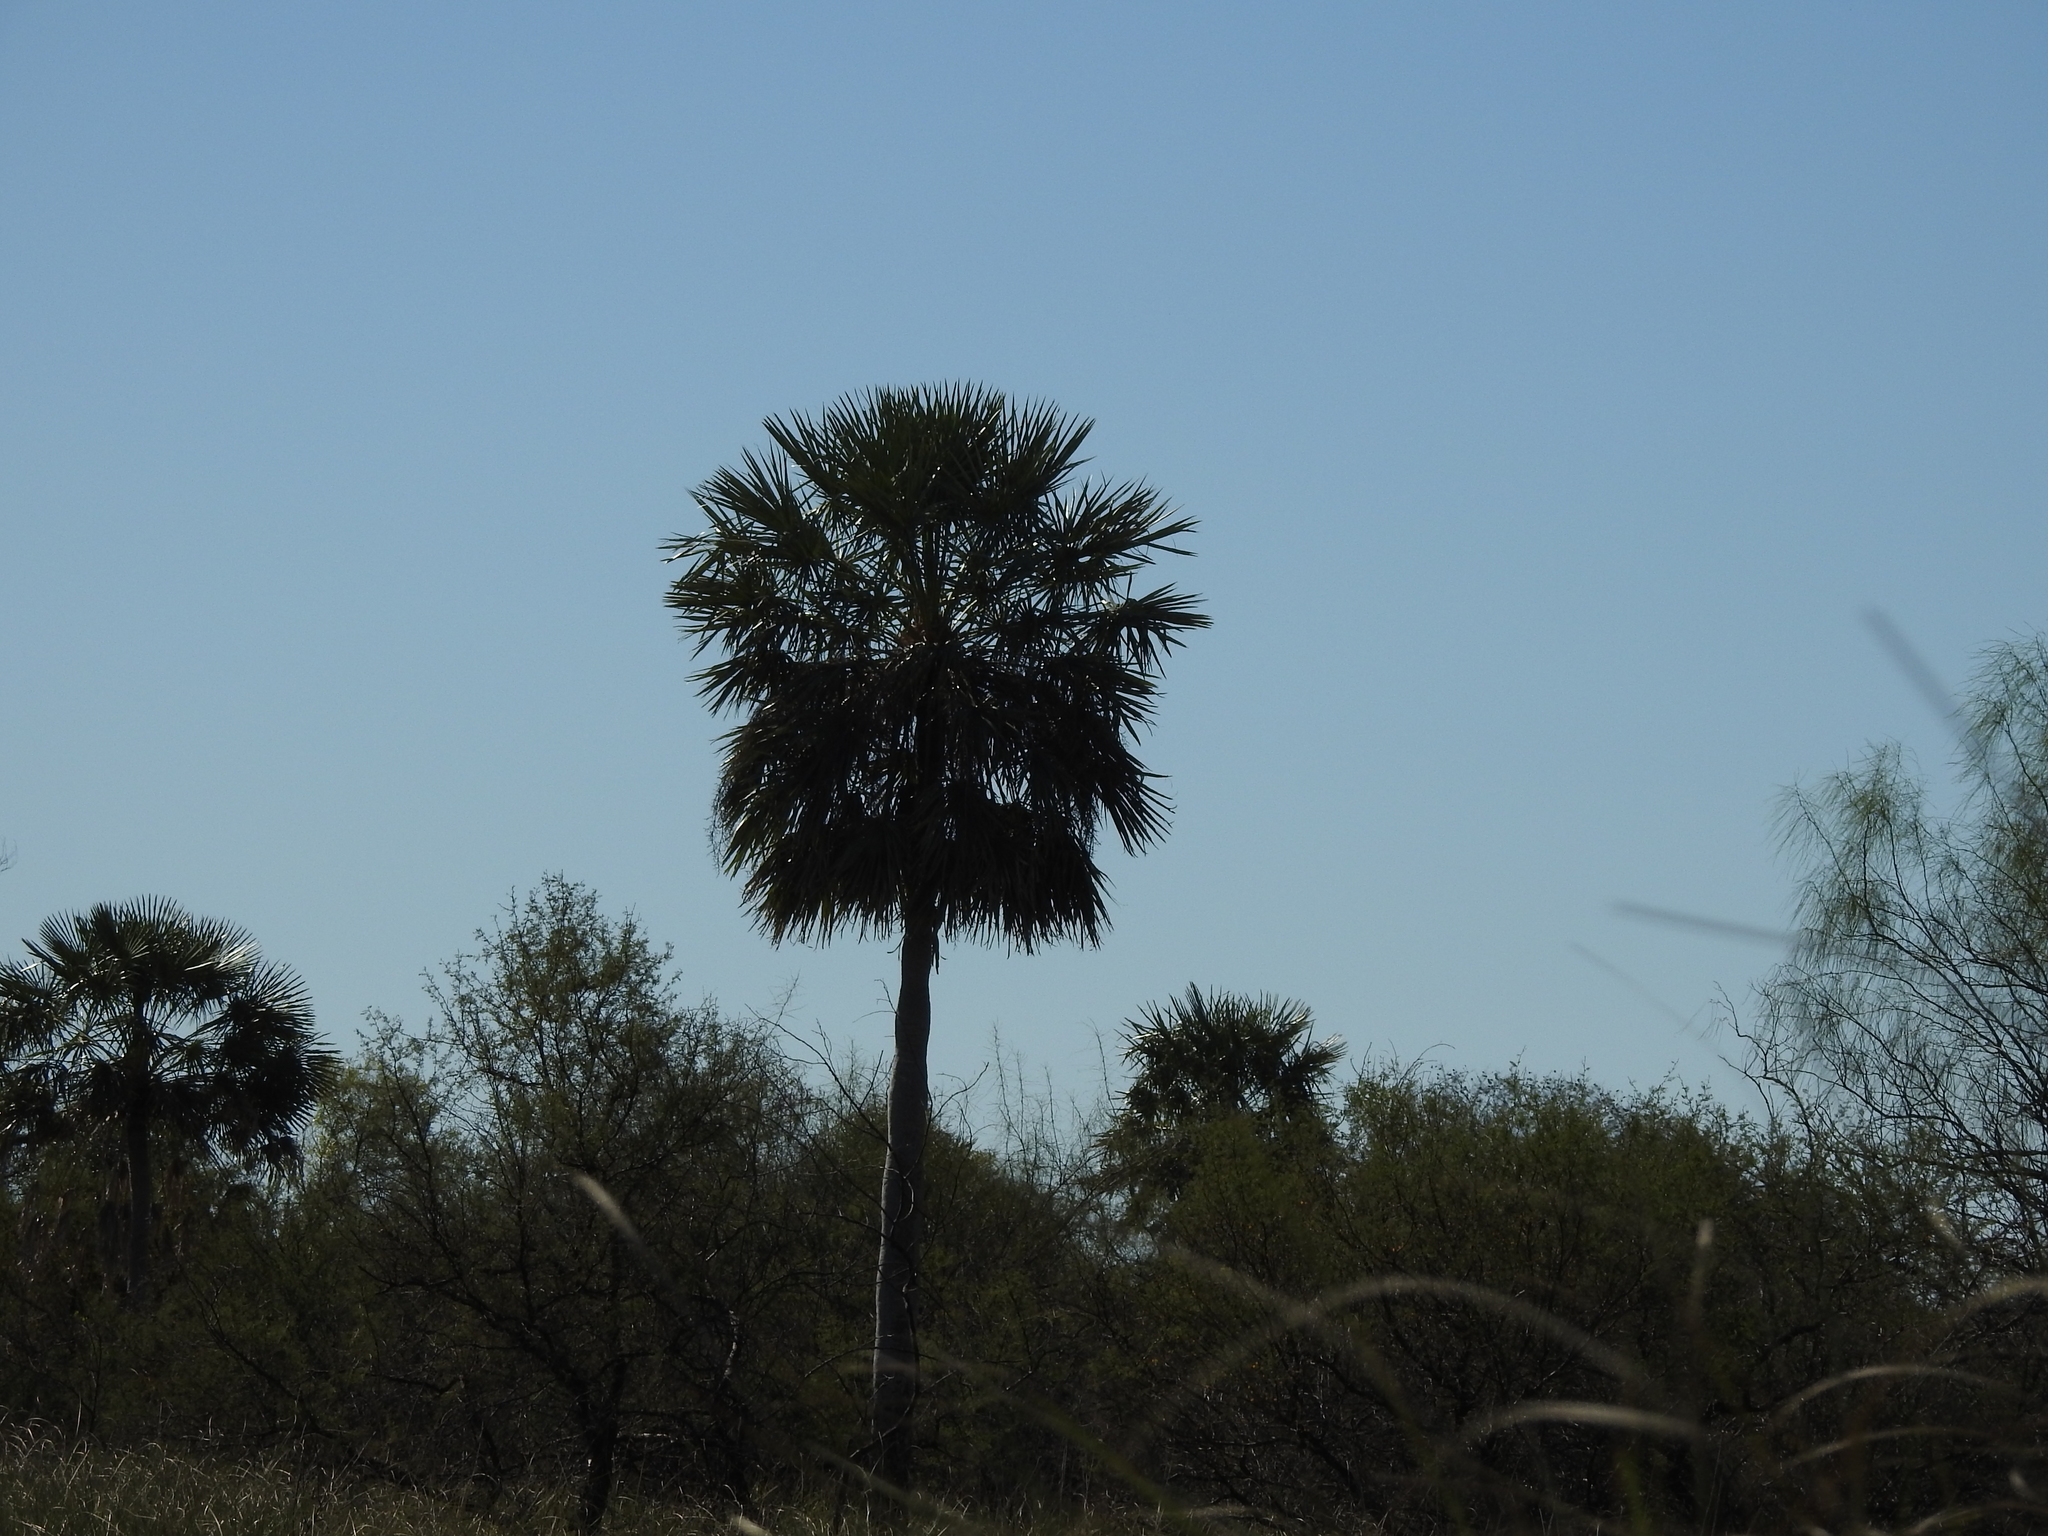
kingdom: Plantae
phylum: Tracheophyta
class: Liliopsida
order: Arecales
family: Arecaceae
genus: Copernicia
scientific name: Copernicia alba
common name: Caranday palm
